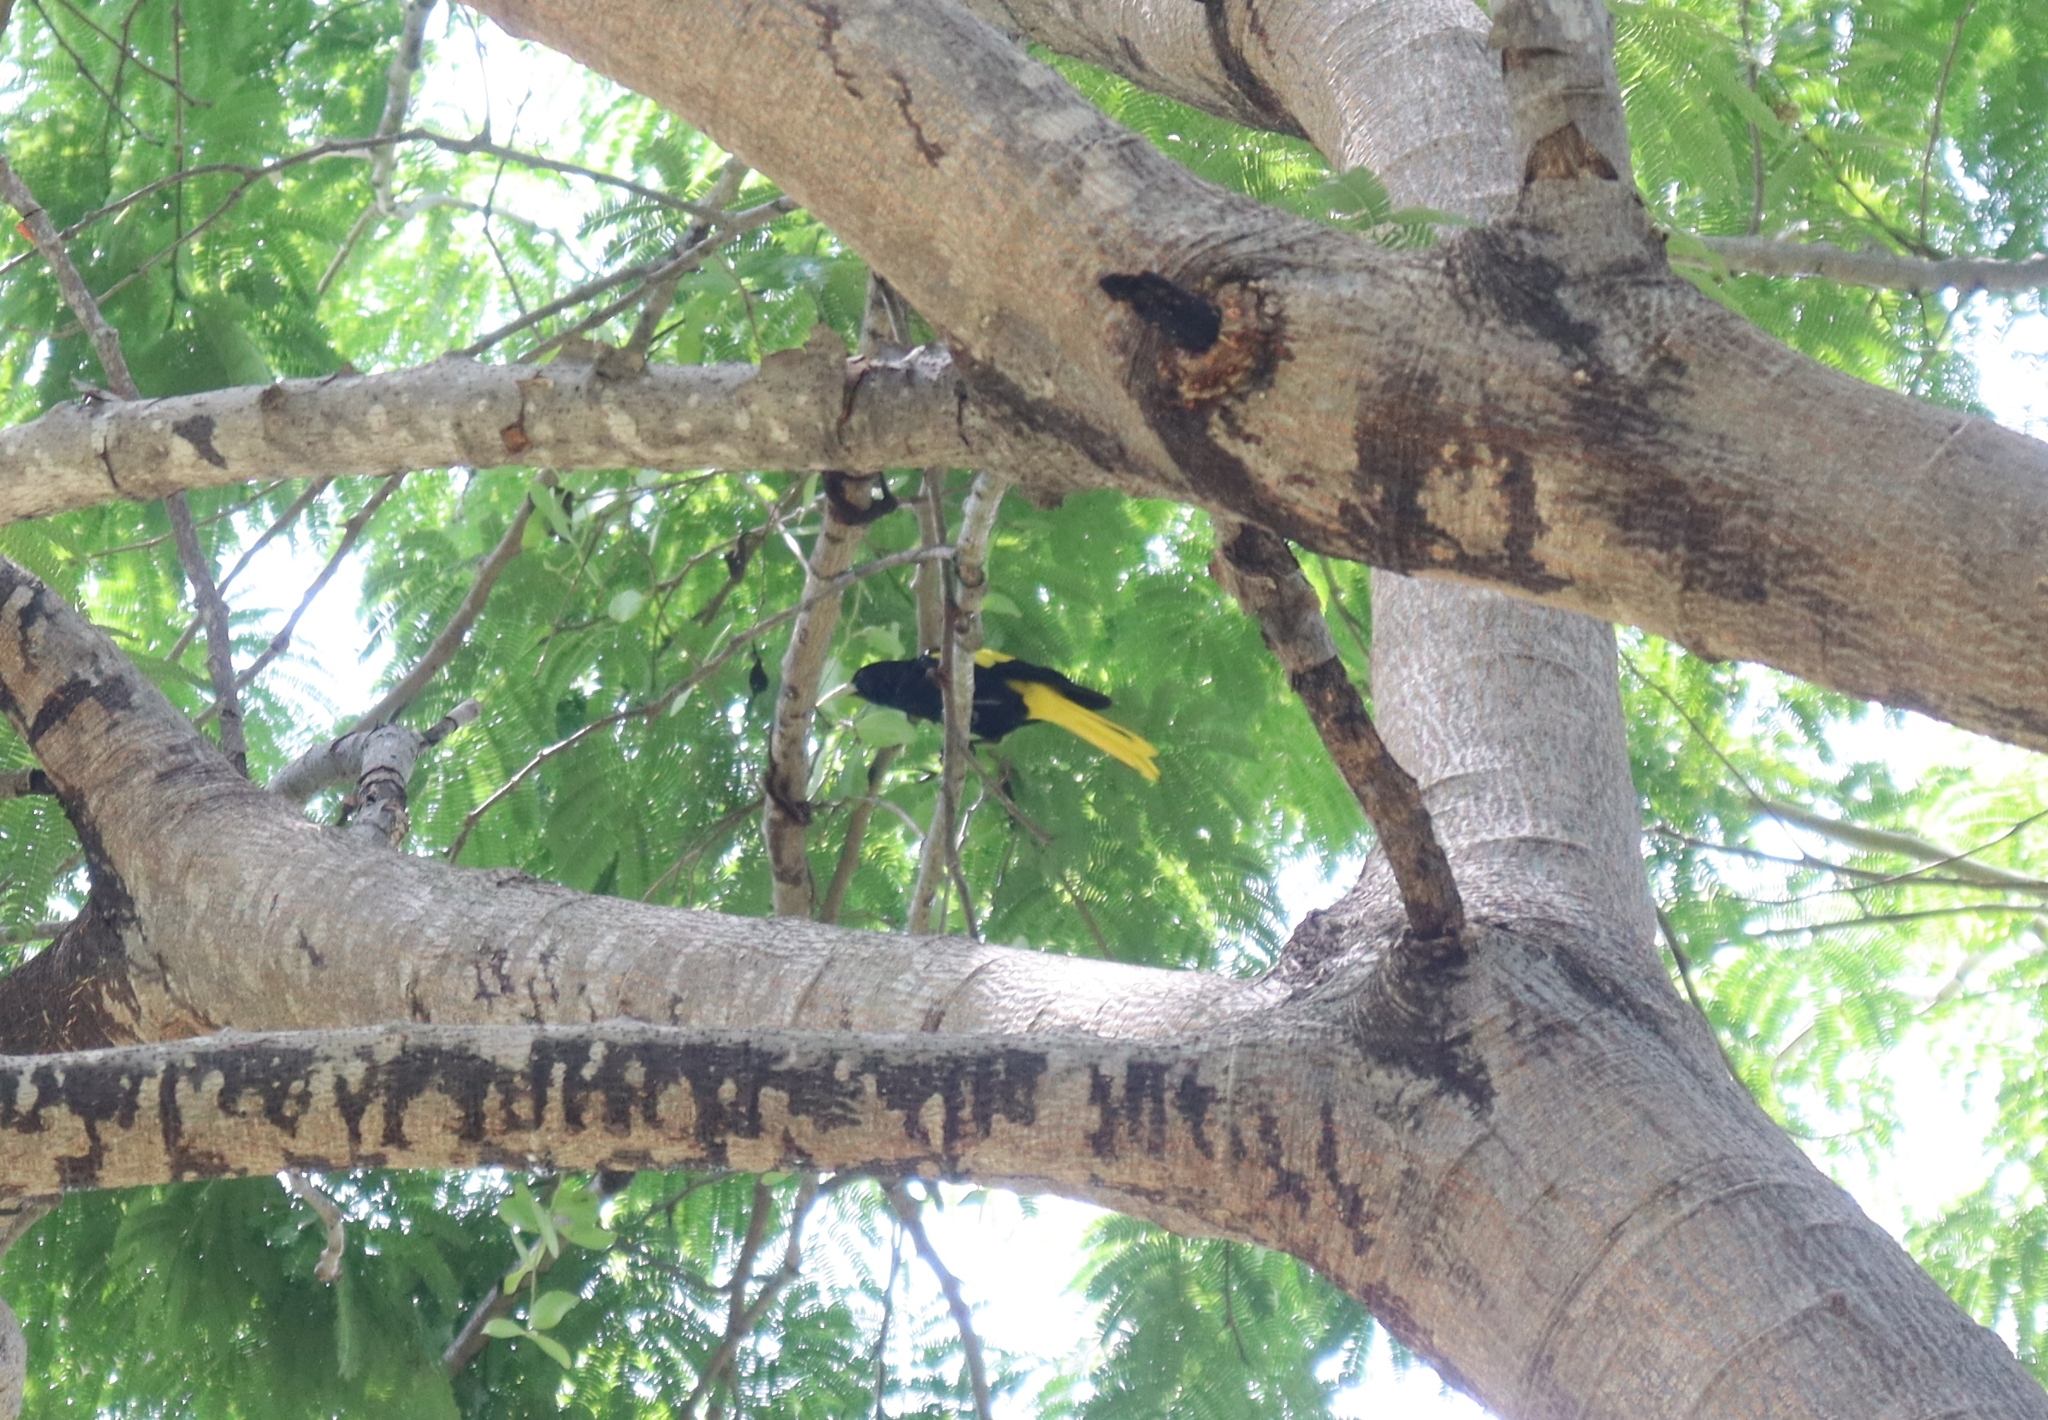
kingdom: Animalia
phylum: Chordata
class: Aves
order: Passeriformes
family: Icteridae
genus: Cacicus
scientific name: Cacicus melanicterus
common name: Yellow-winged cacique
